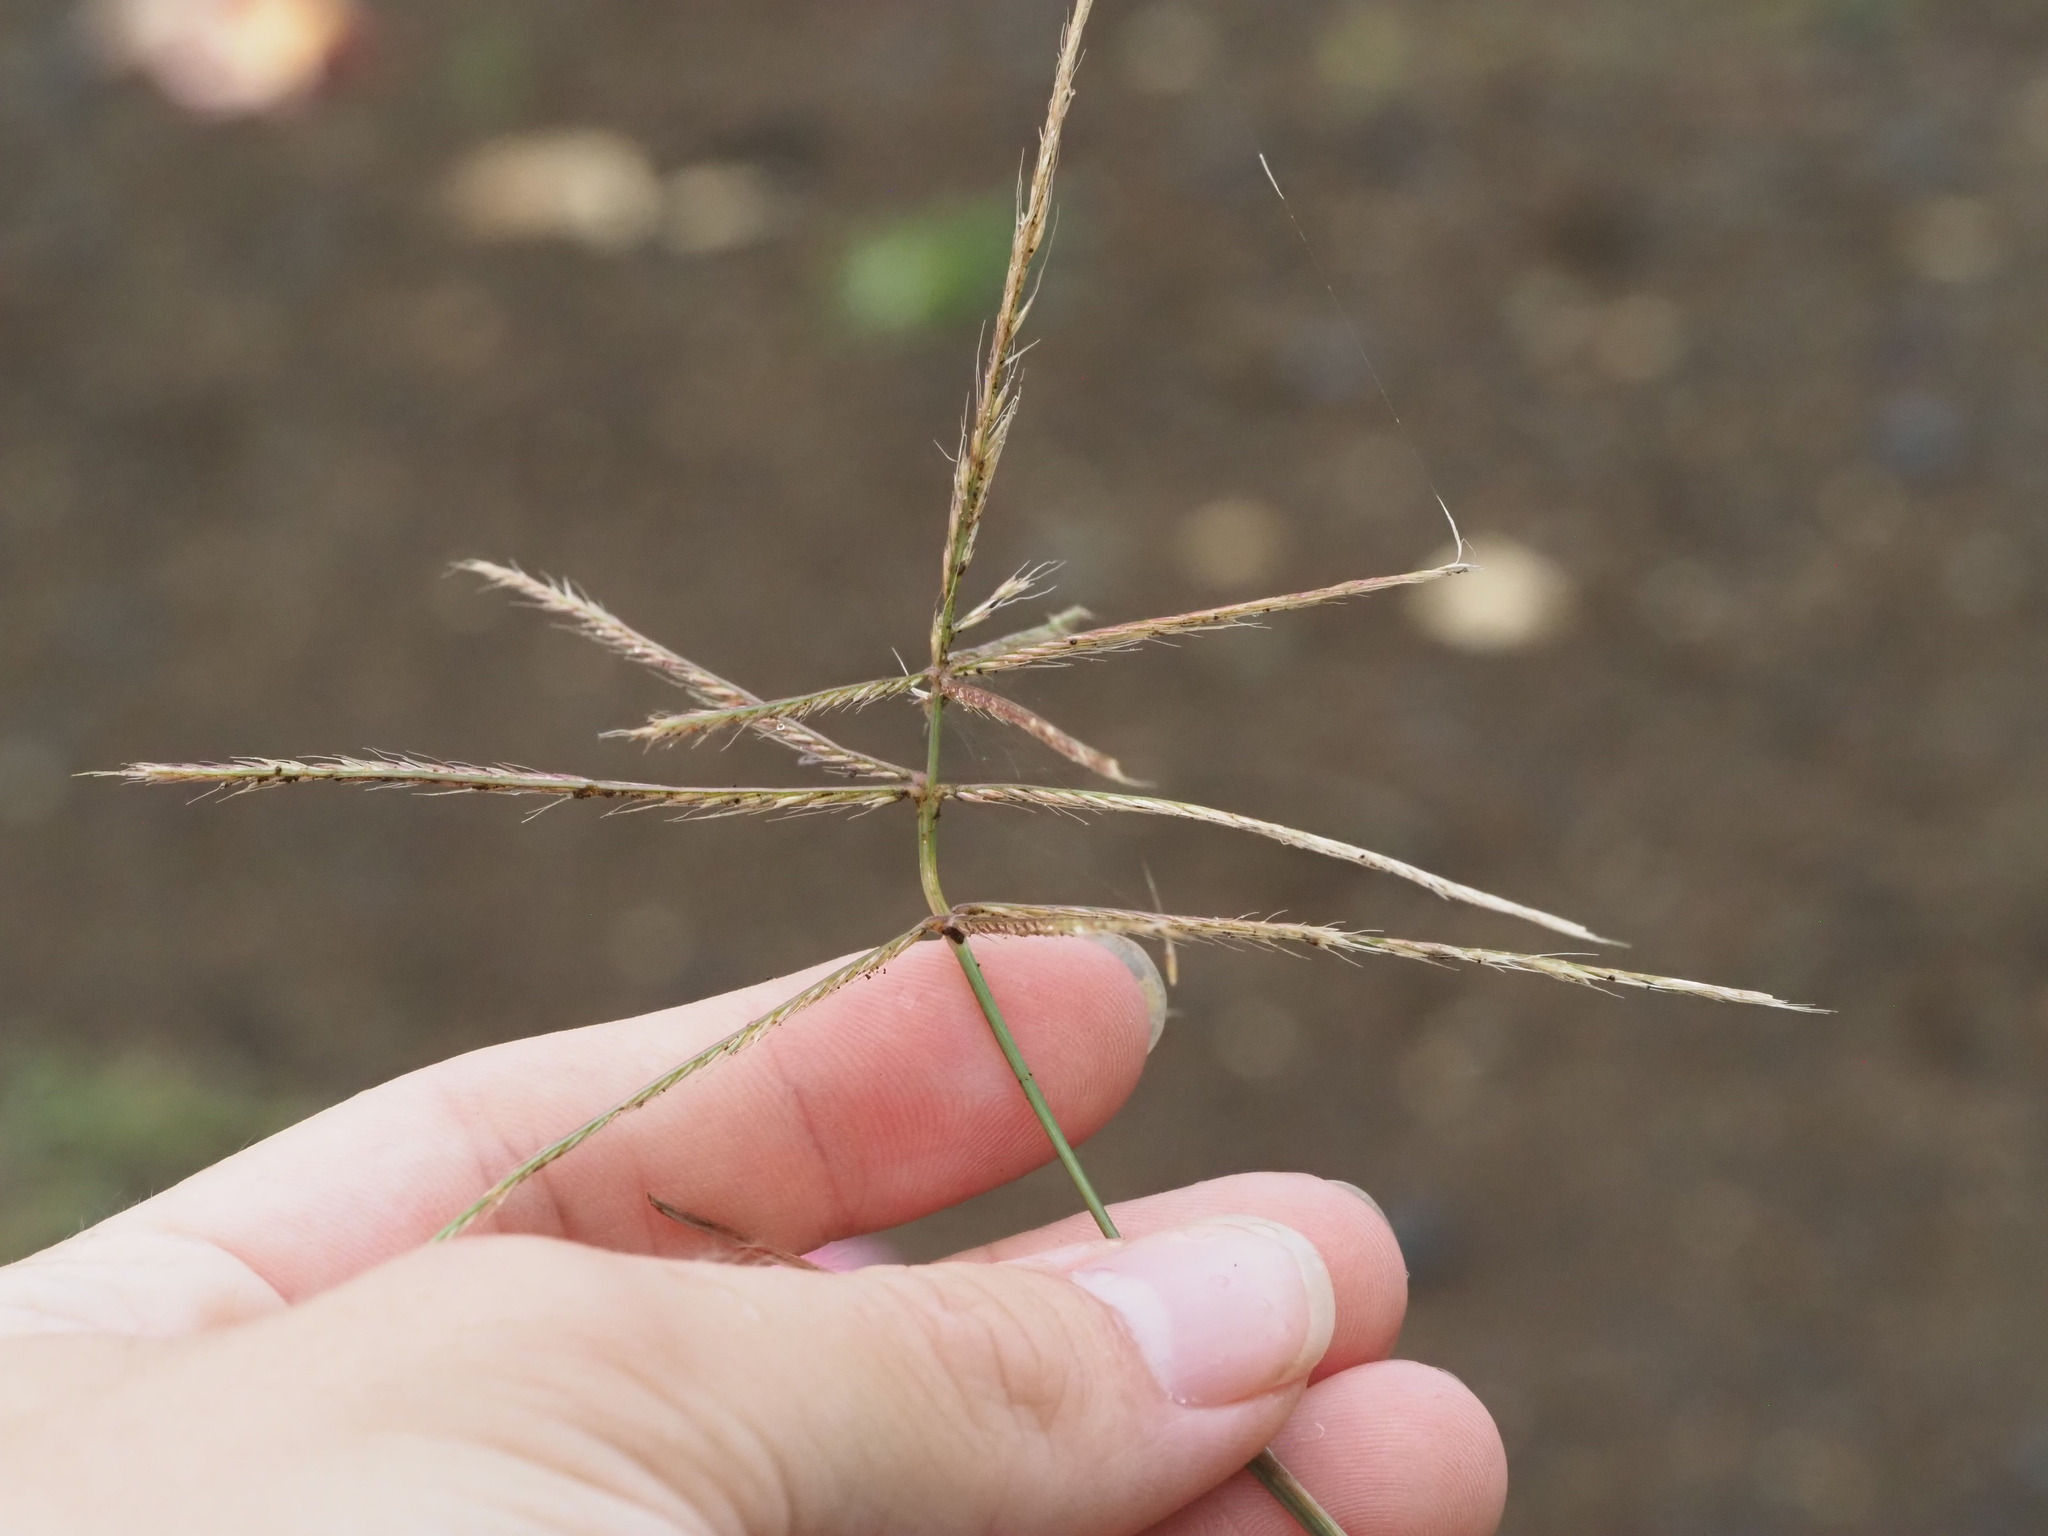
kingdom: Plantae
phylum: Tracheophyta
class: Liliopsida
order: Poales
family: Poaceae
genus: Chloris
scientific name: Chloris divaricata
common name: Spreading windmill grass
